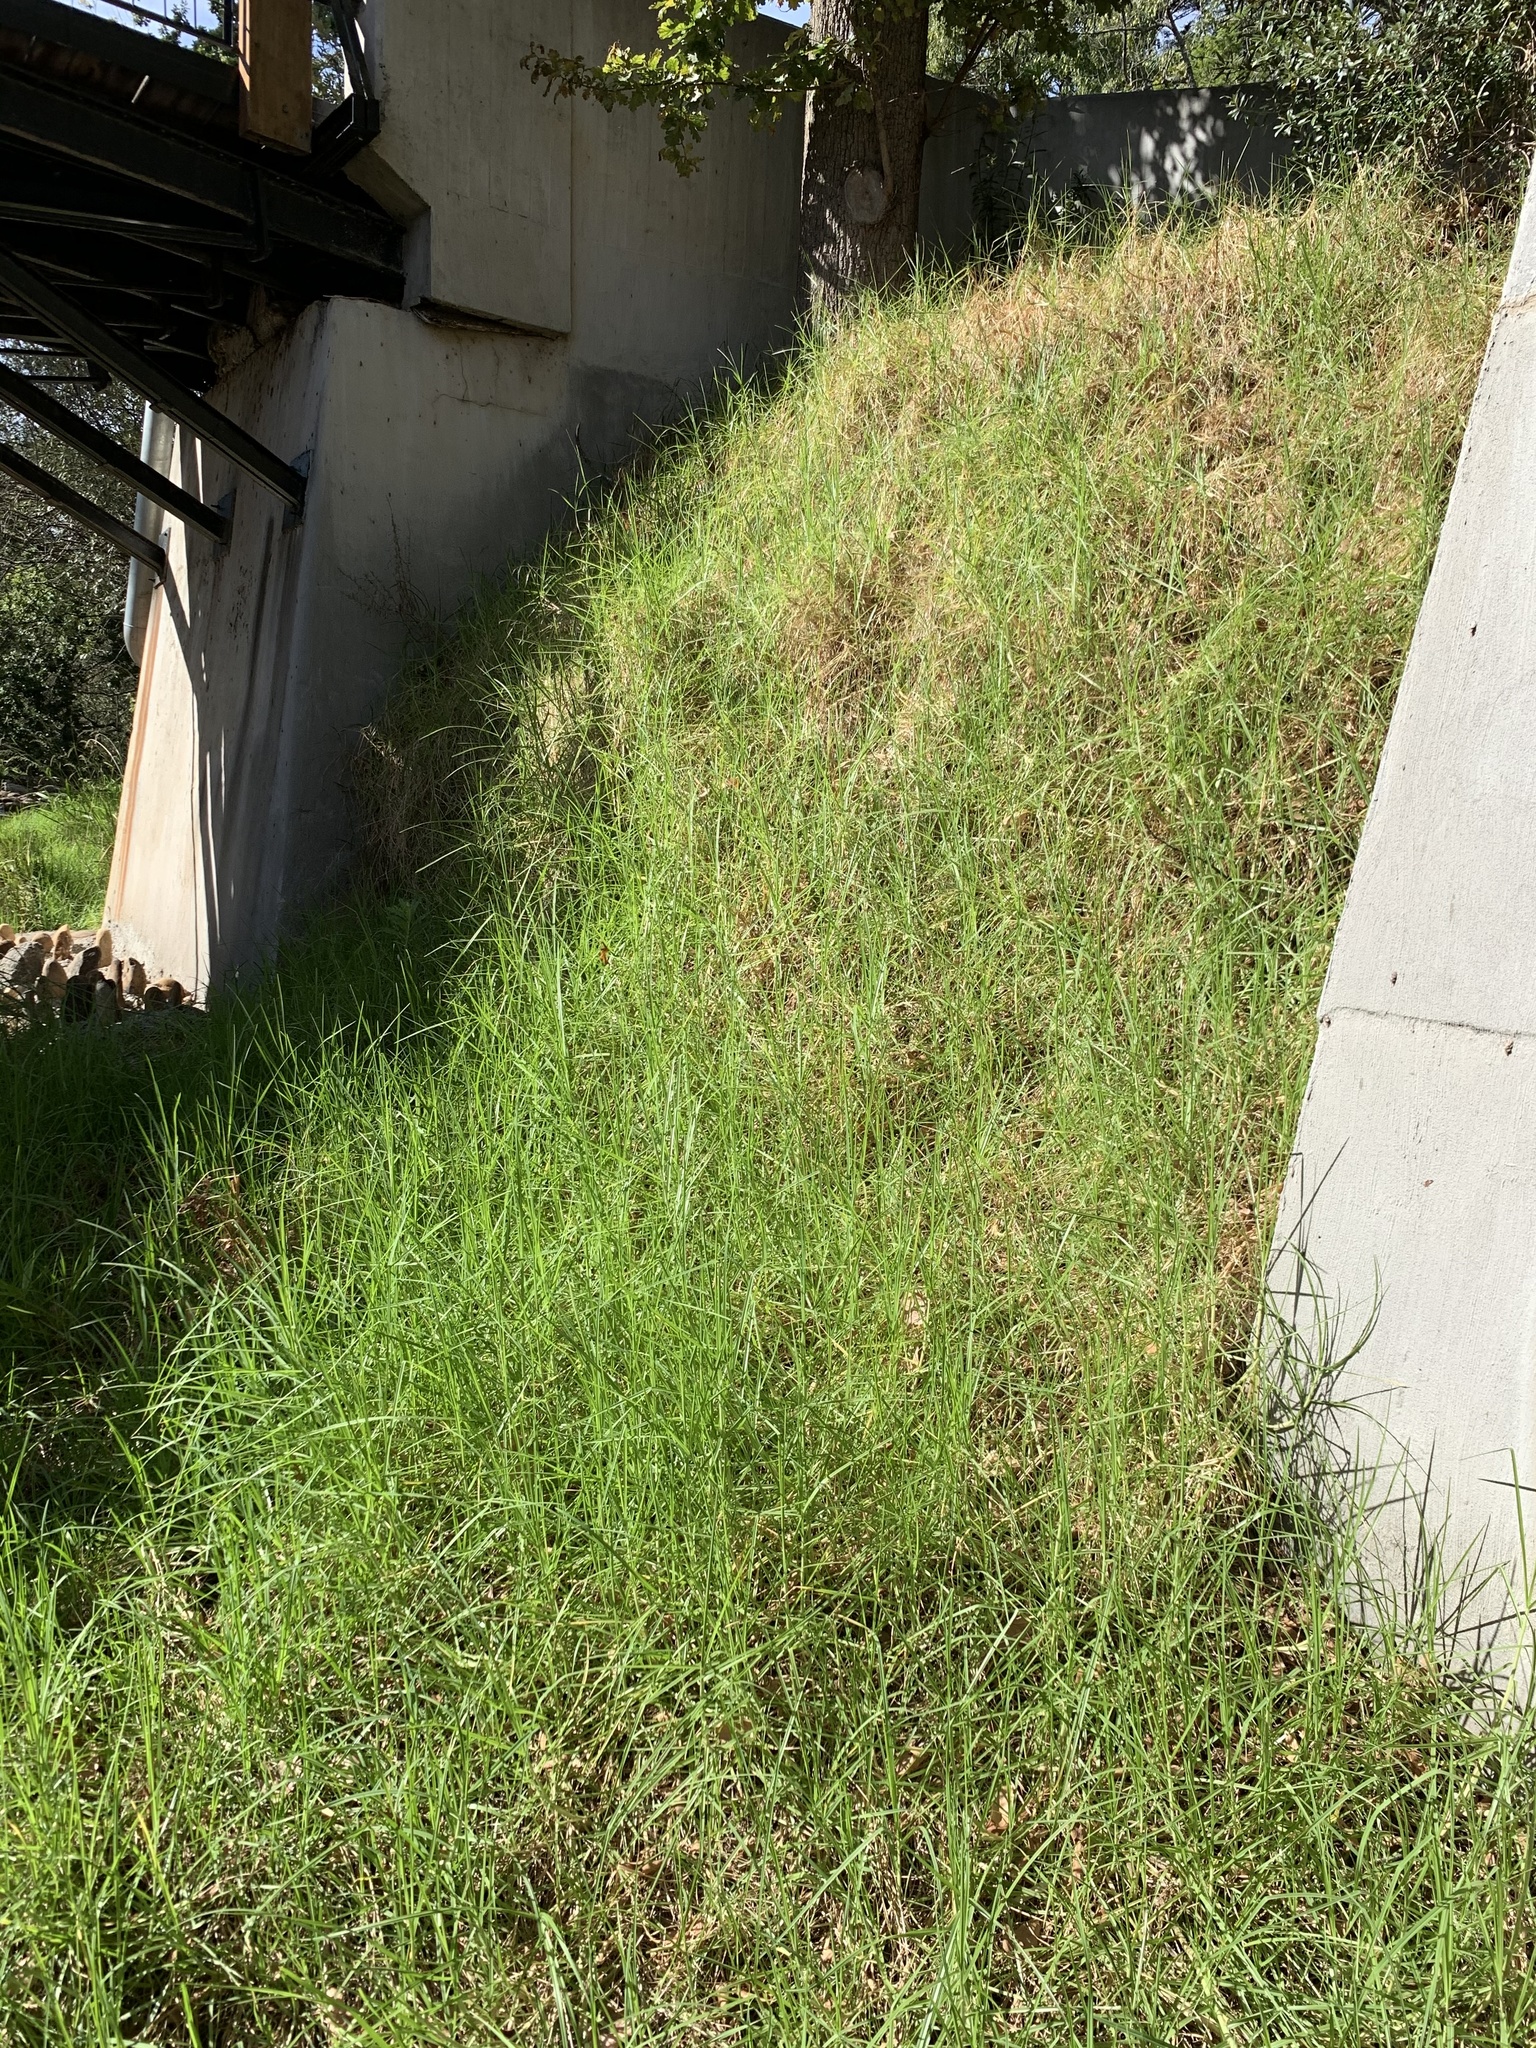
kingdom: Plantae
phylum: Tracheophyta
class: Liliopsida
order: Poales
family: Poaceae
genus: Cenchrus
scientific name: Cenchrus clandestinus
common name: Kikuyugrass
